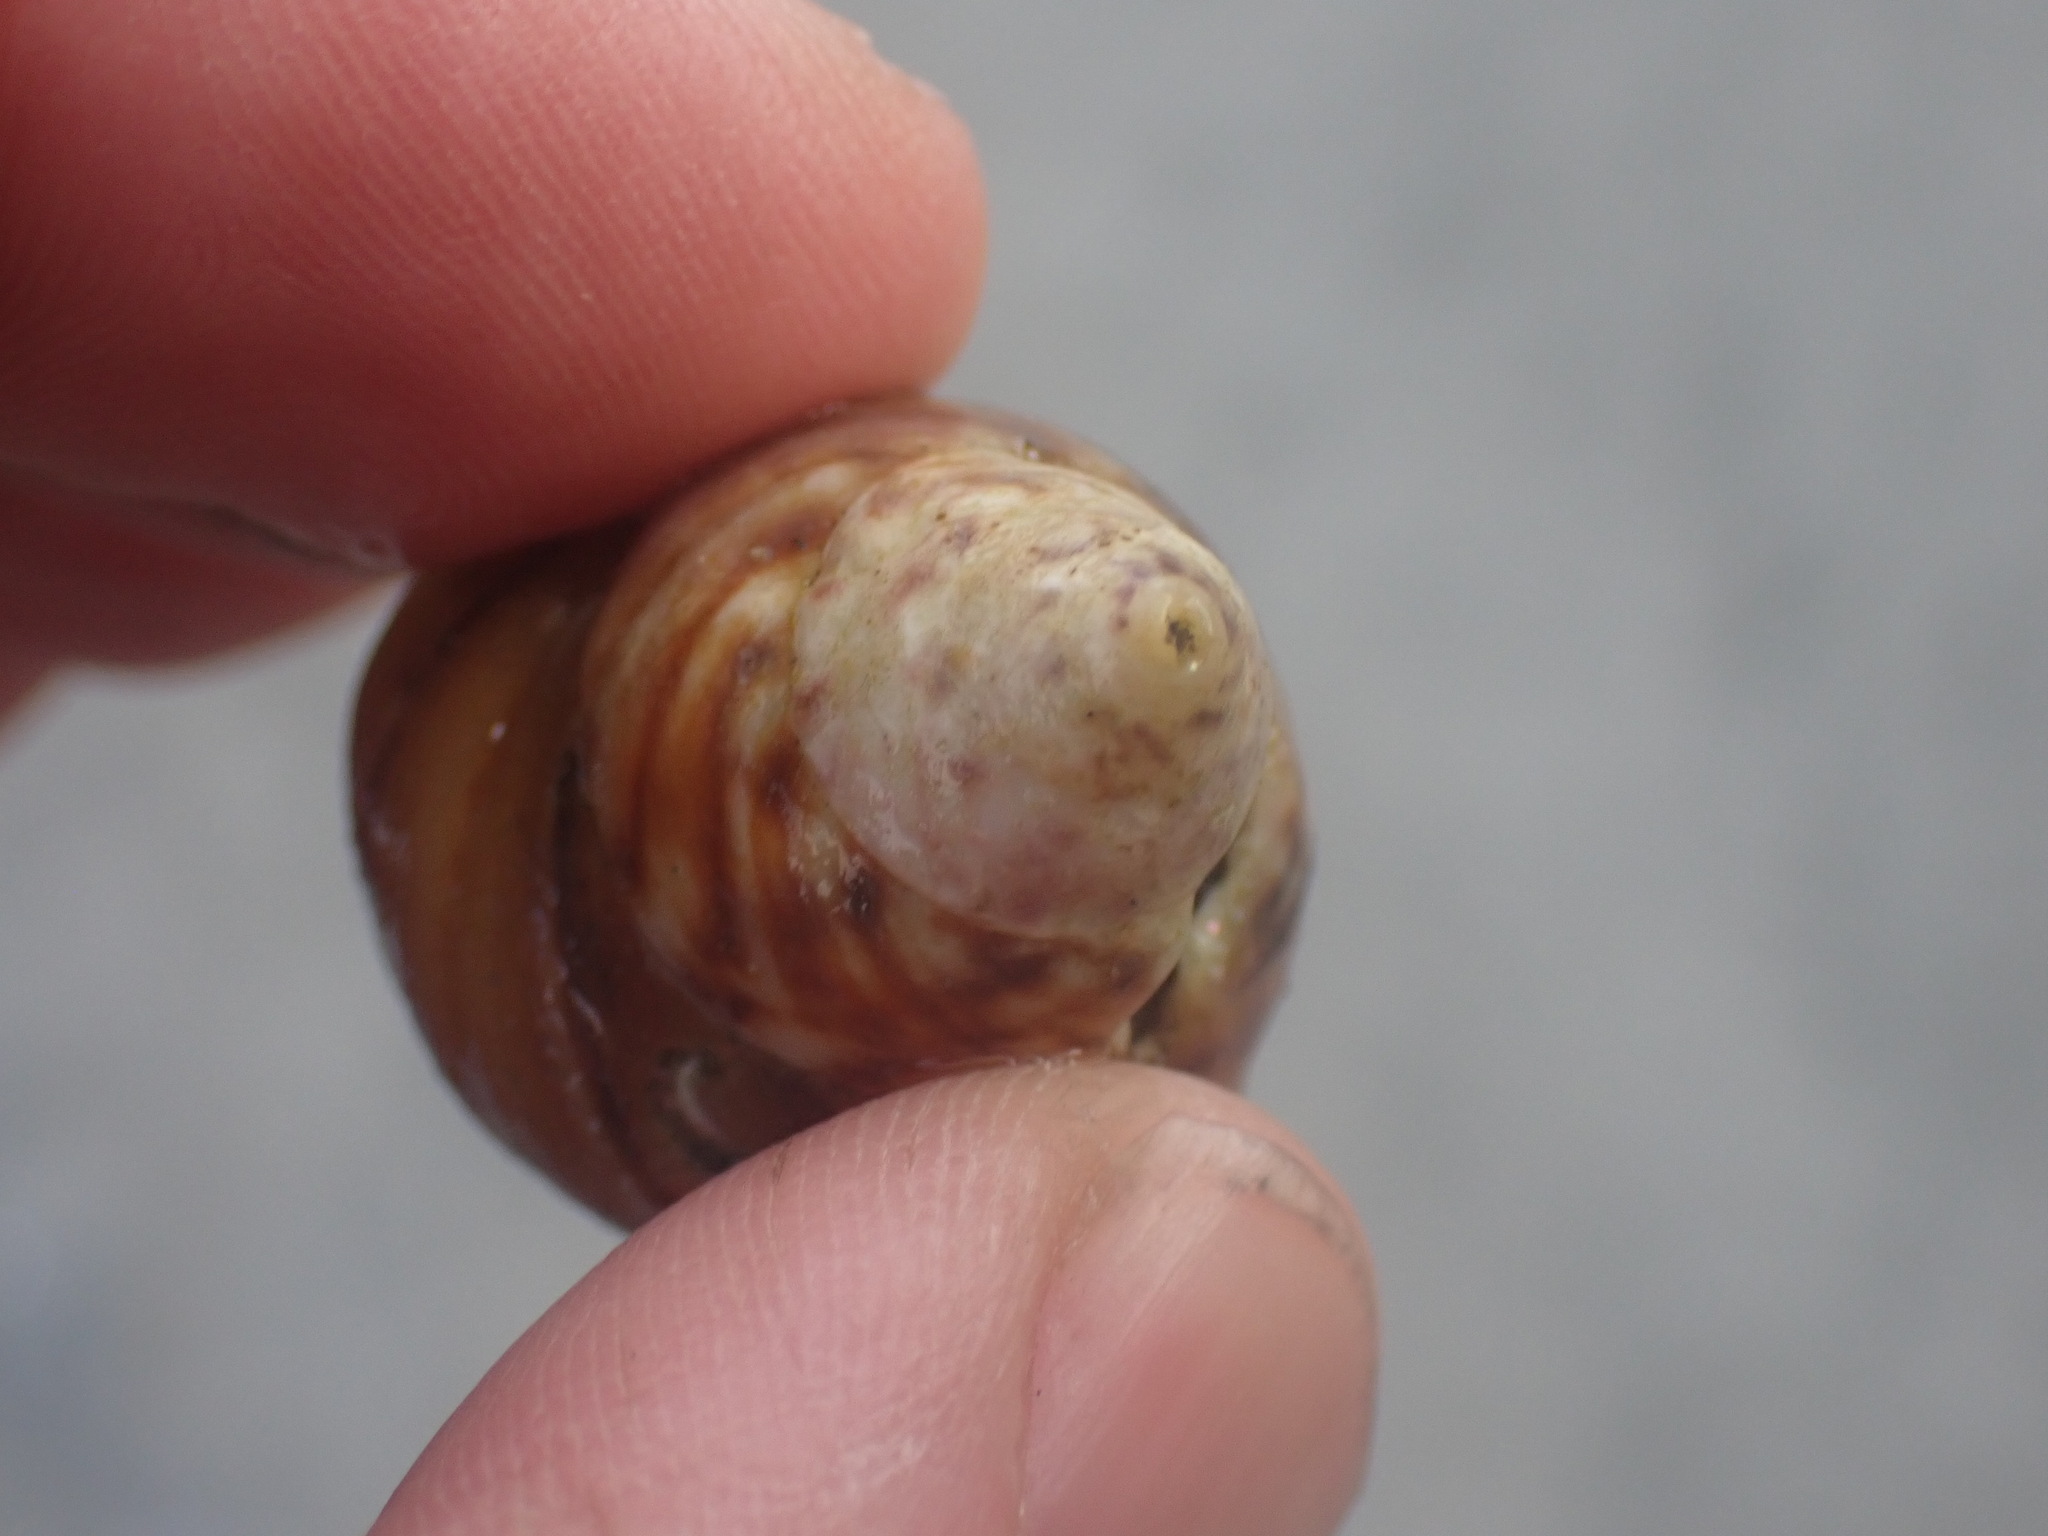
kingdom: Animalia
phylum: Mollusca
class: Gastropoda
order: Trochida
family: Tegulidae
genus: Tegula
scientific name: Tegula pulligo
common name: Brown turban
